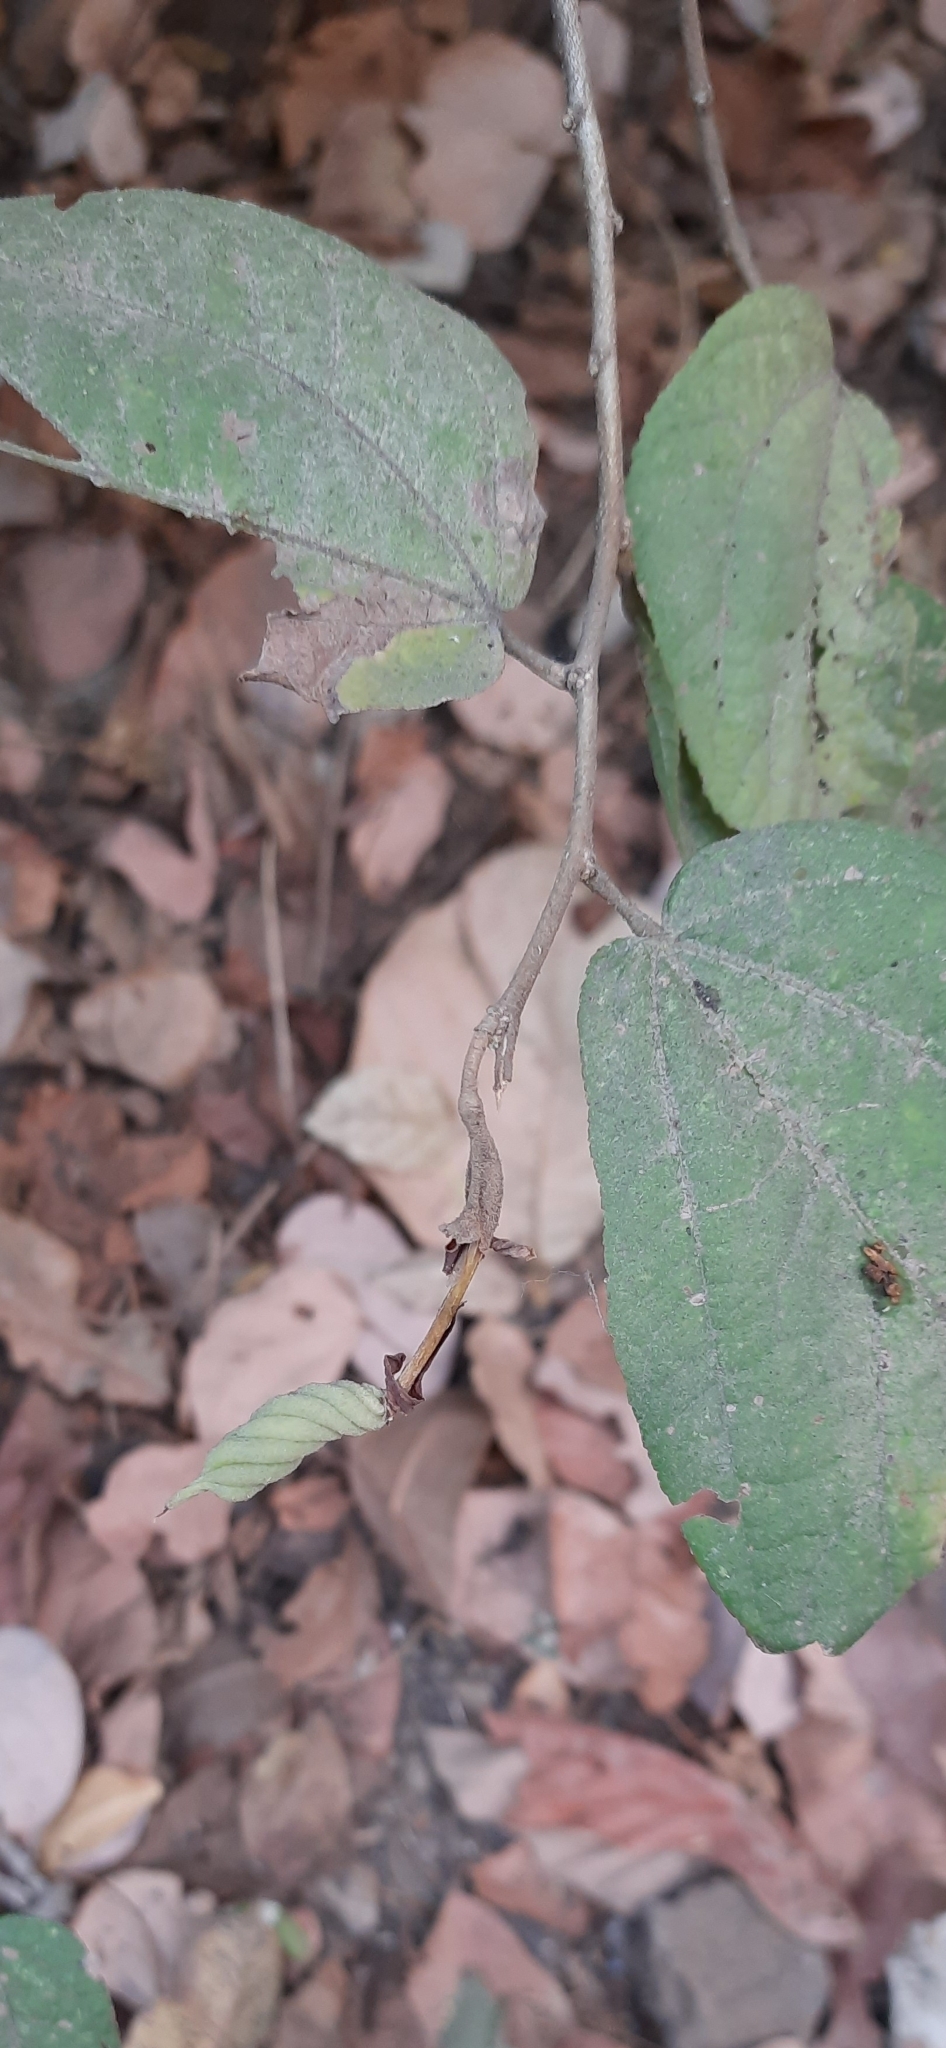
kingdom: Plantae
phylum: Tracheophyta
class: Magnoliopsida
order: Malvales
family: Malvaceae
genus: Helicteres
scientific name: Helicteres isora
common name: East indian screwtree
